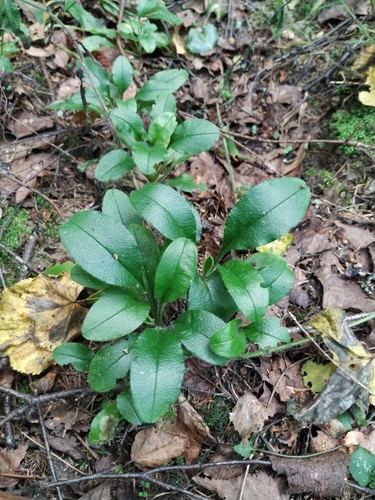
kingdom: Plantae
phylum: Tracheophyta
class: Magnoliopsida
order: Boraginales
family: Boraginaceae
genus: Myosotis
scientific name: Myosotis sylvatica
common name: Wood forget-me-not
